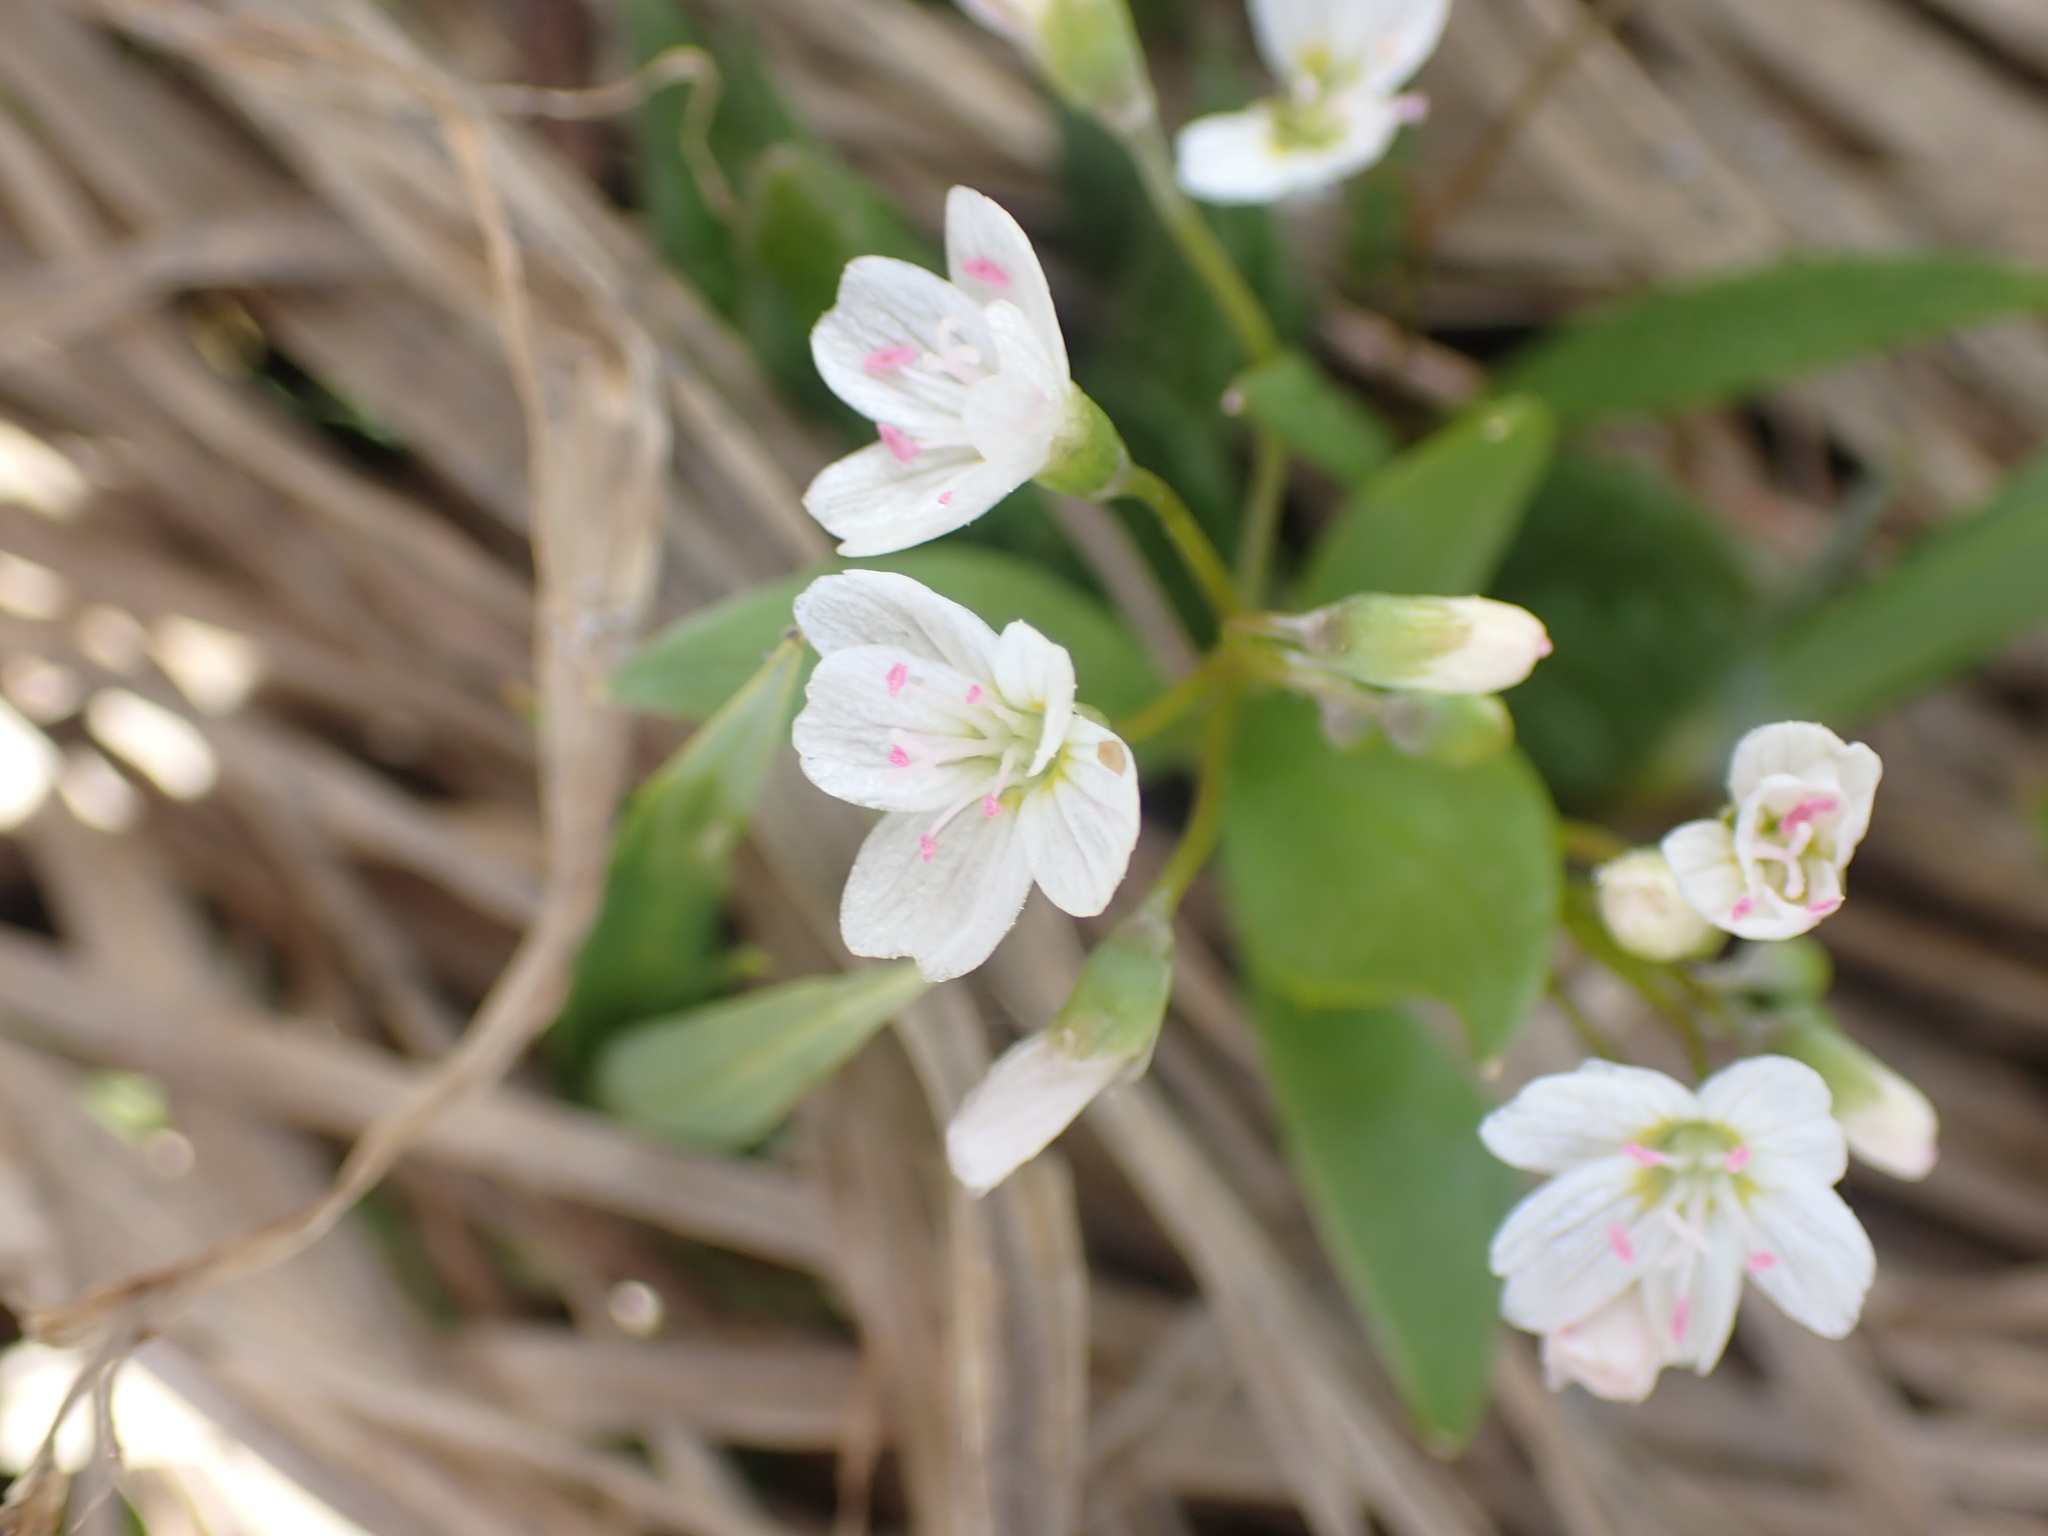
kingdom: Plantae
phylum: Tracheophyta
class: Magnoliopsida
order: Caryophyllales
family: Montiaceae
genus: Claytonia
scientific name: Claytonia lanceolata
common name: Western spring-beauty
